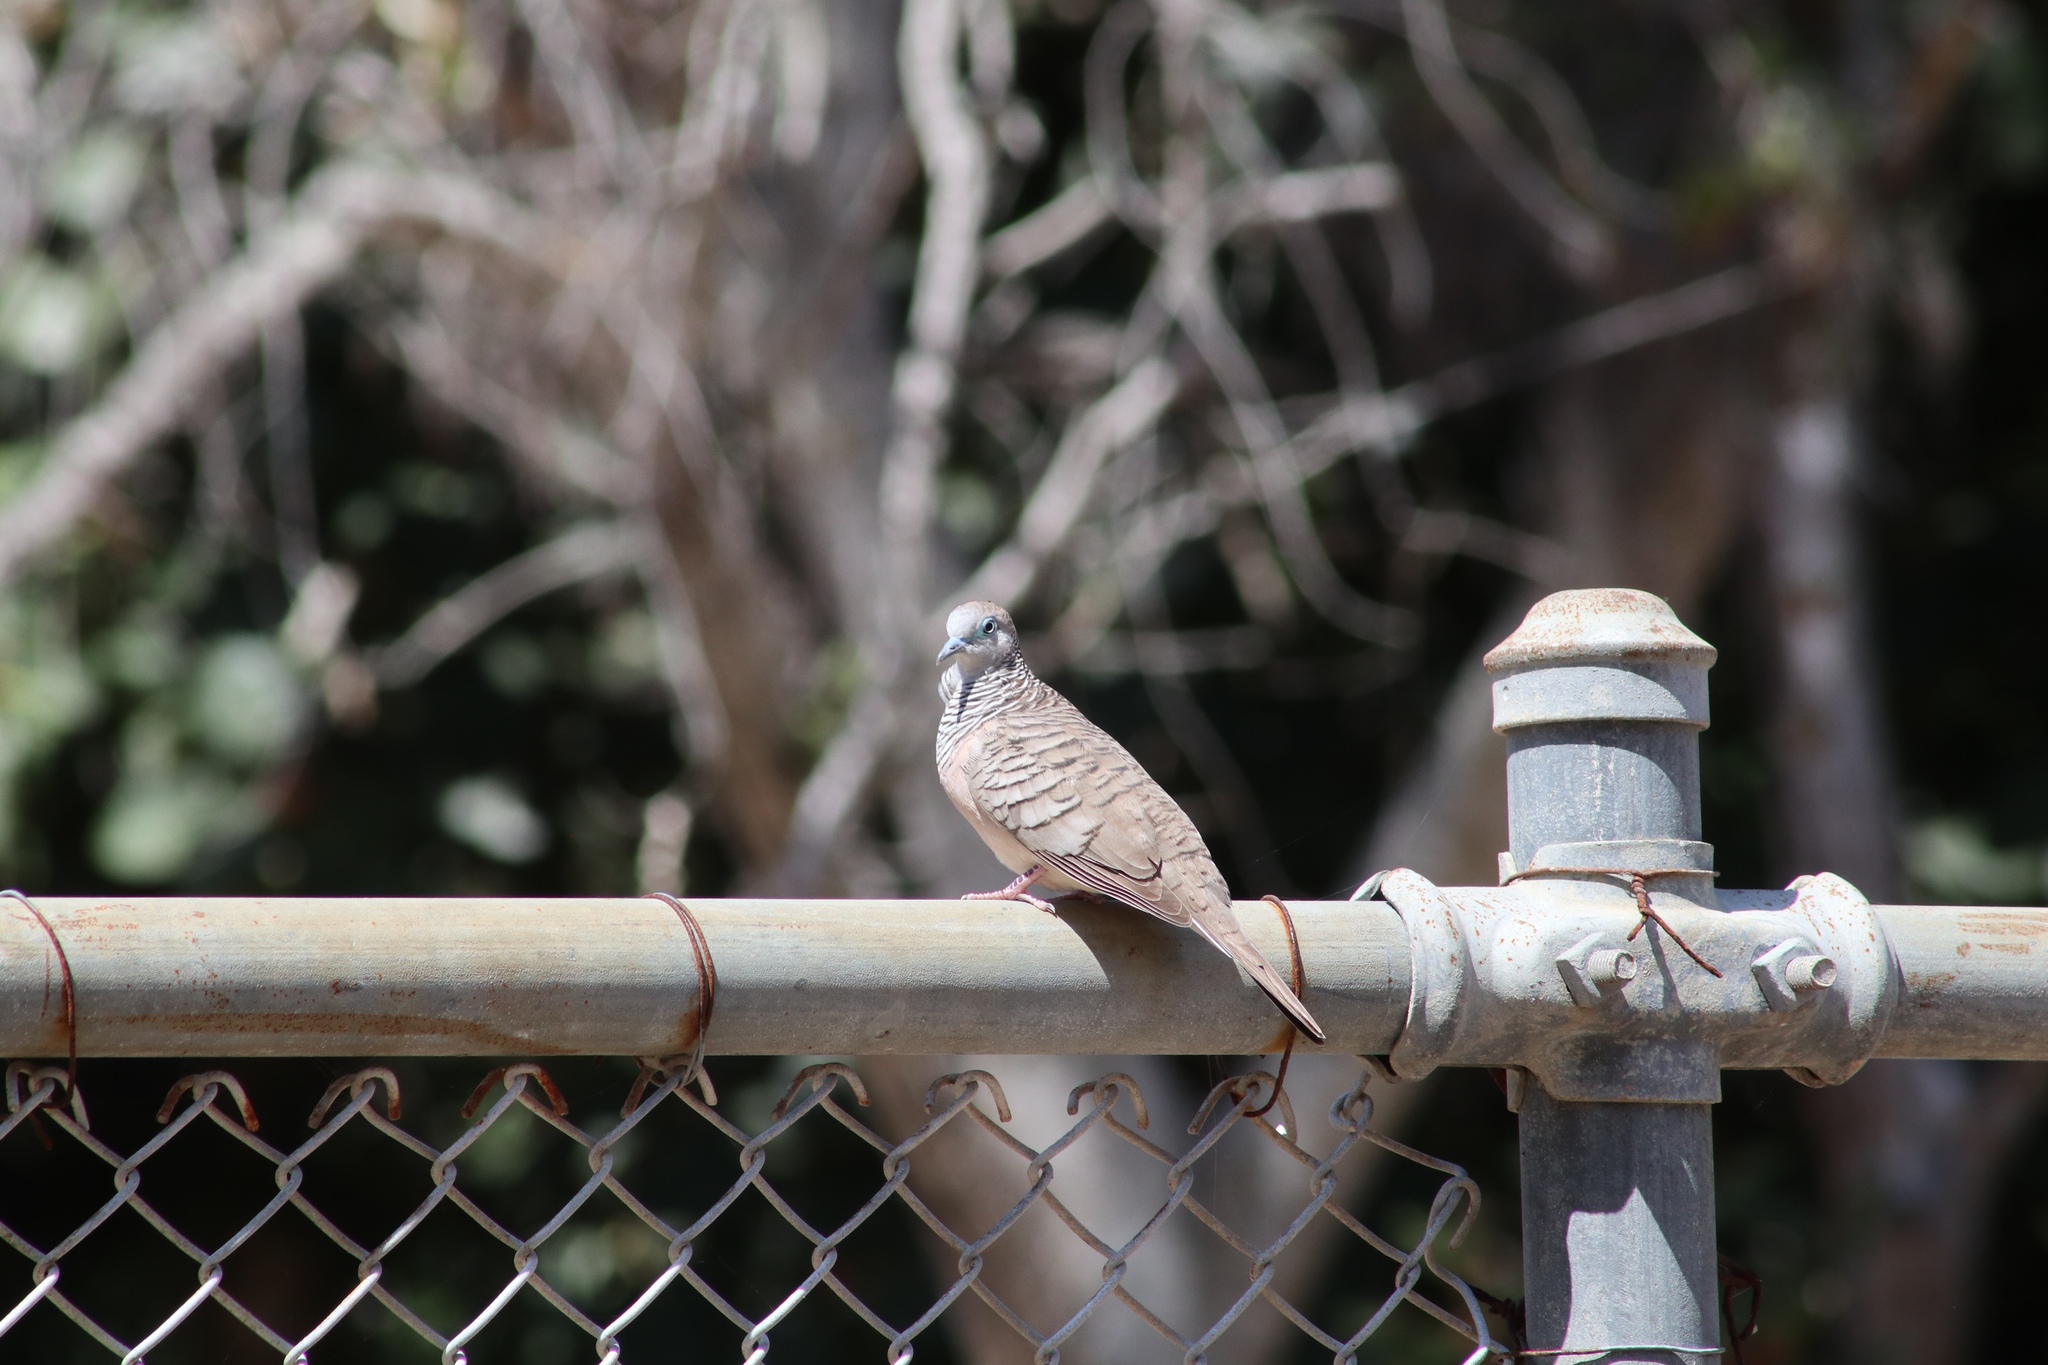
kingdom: Animalia
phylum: Chordata
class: Aves
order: Columbiformes
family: Columbidae
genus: Geopelia
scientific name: Geopelia placida
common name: Peaceful dove
